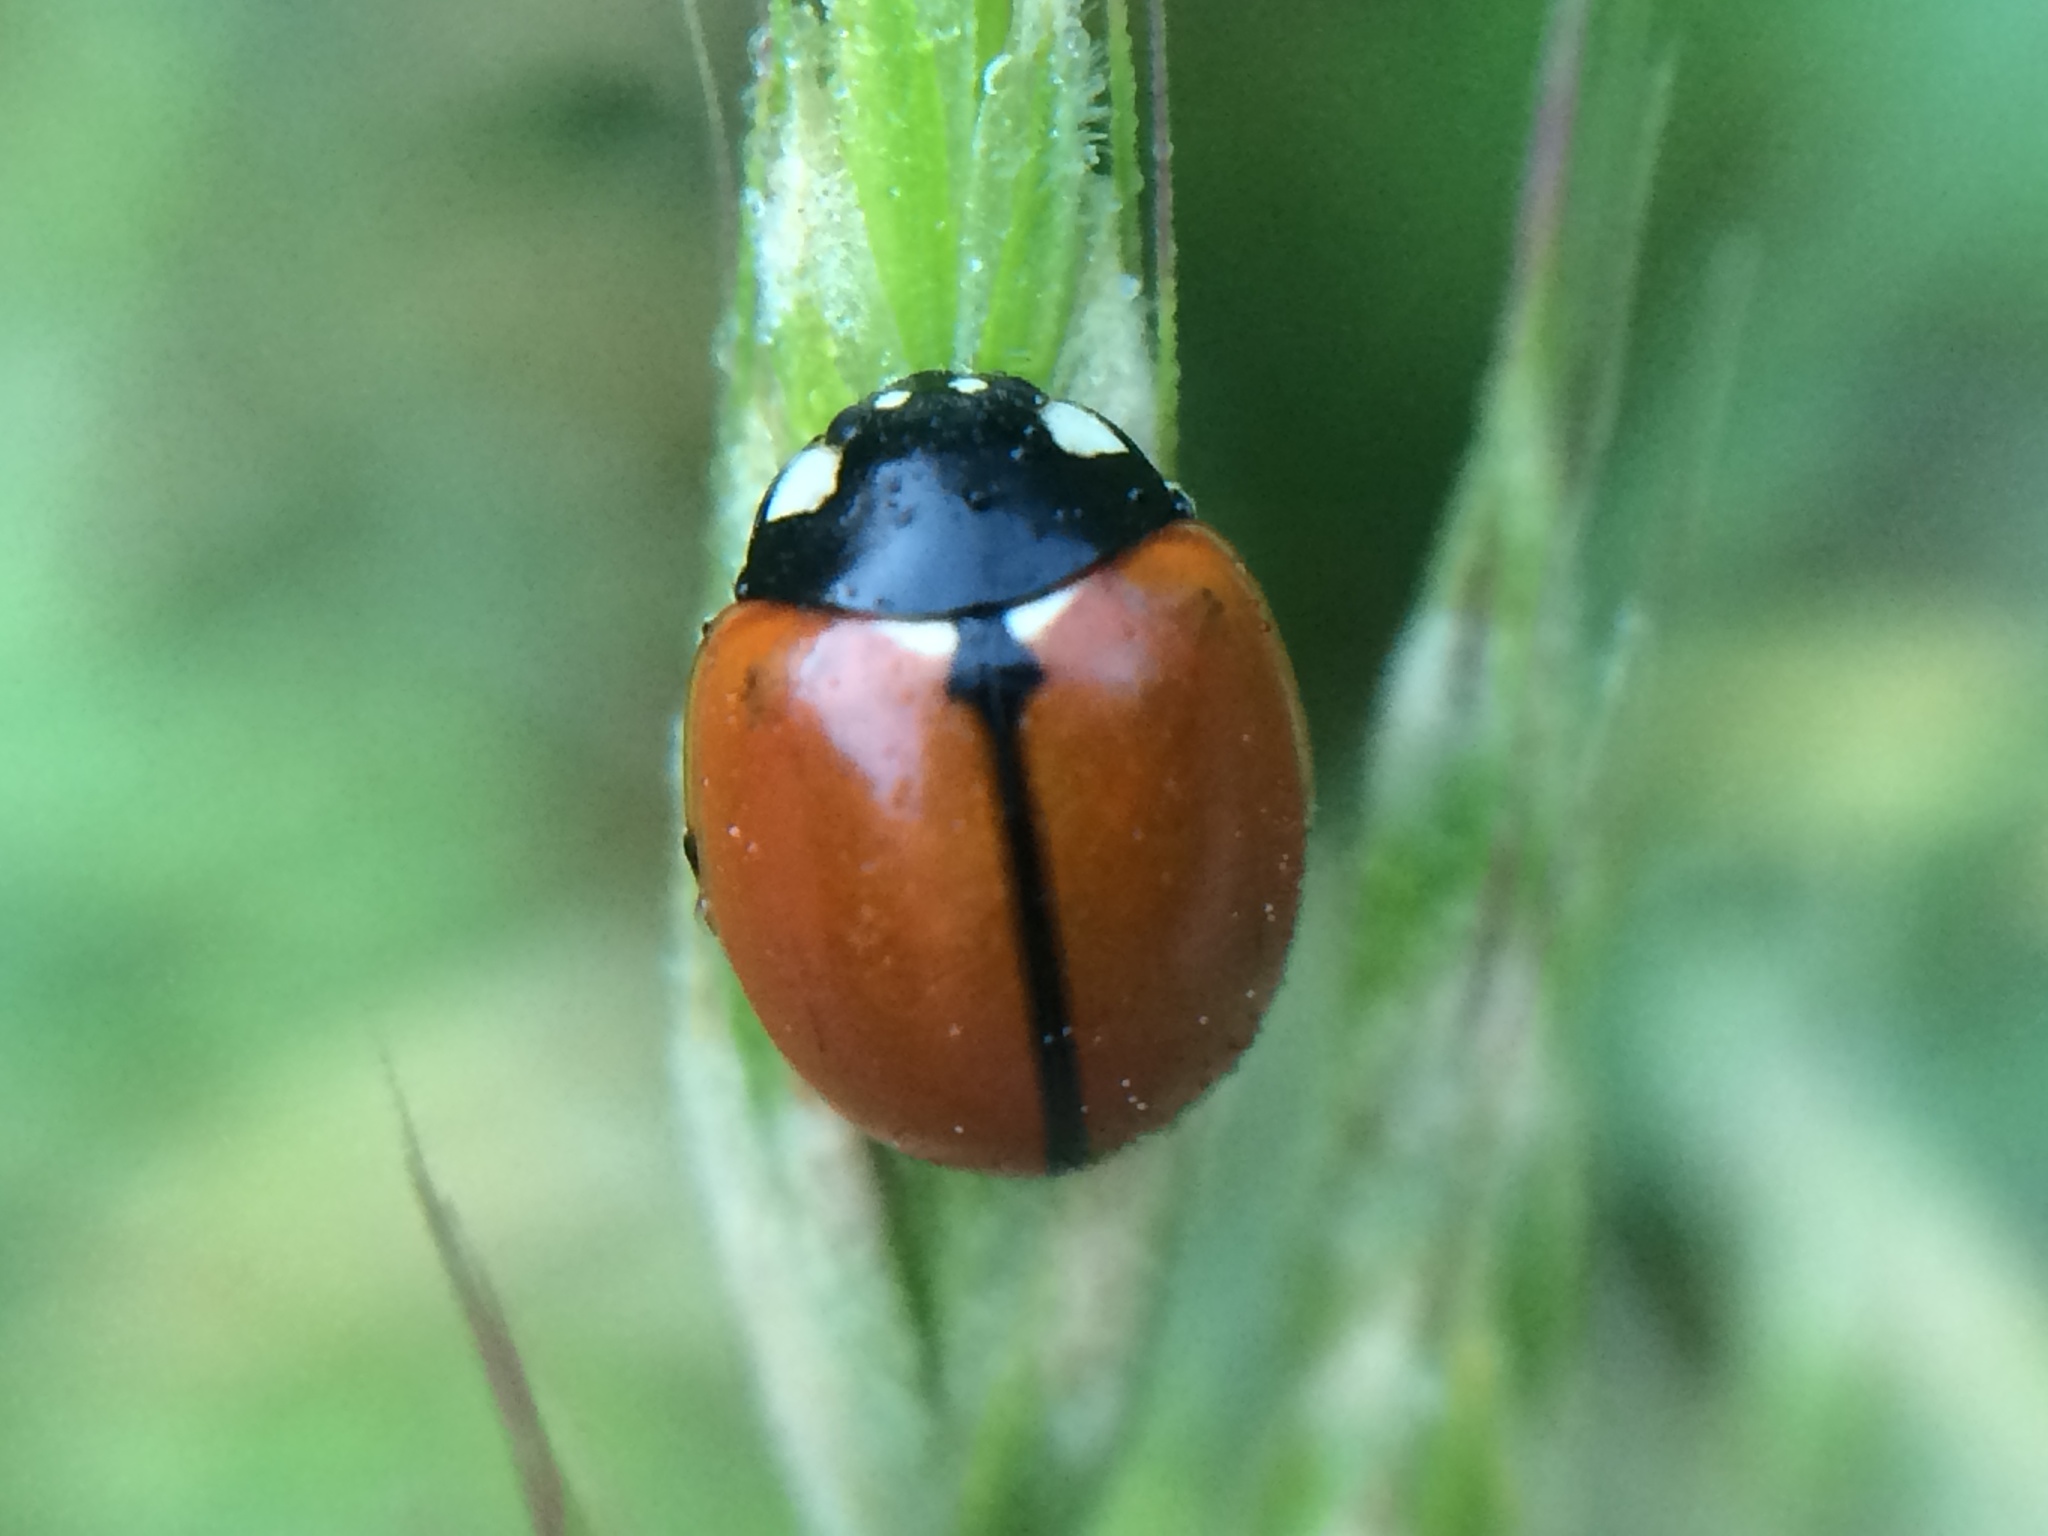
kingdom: Animalia
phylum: Arthropoda
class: Insecta
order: Coleoptera
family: Coccinellidae
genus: Coccinella
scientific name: Coccinella californica
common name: Lady beetle
